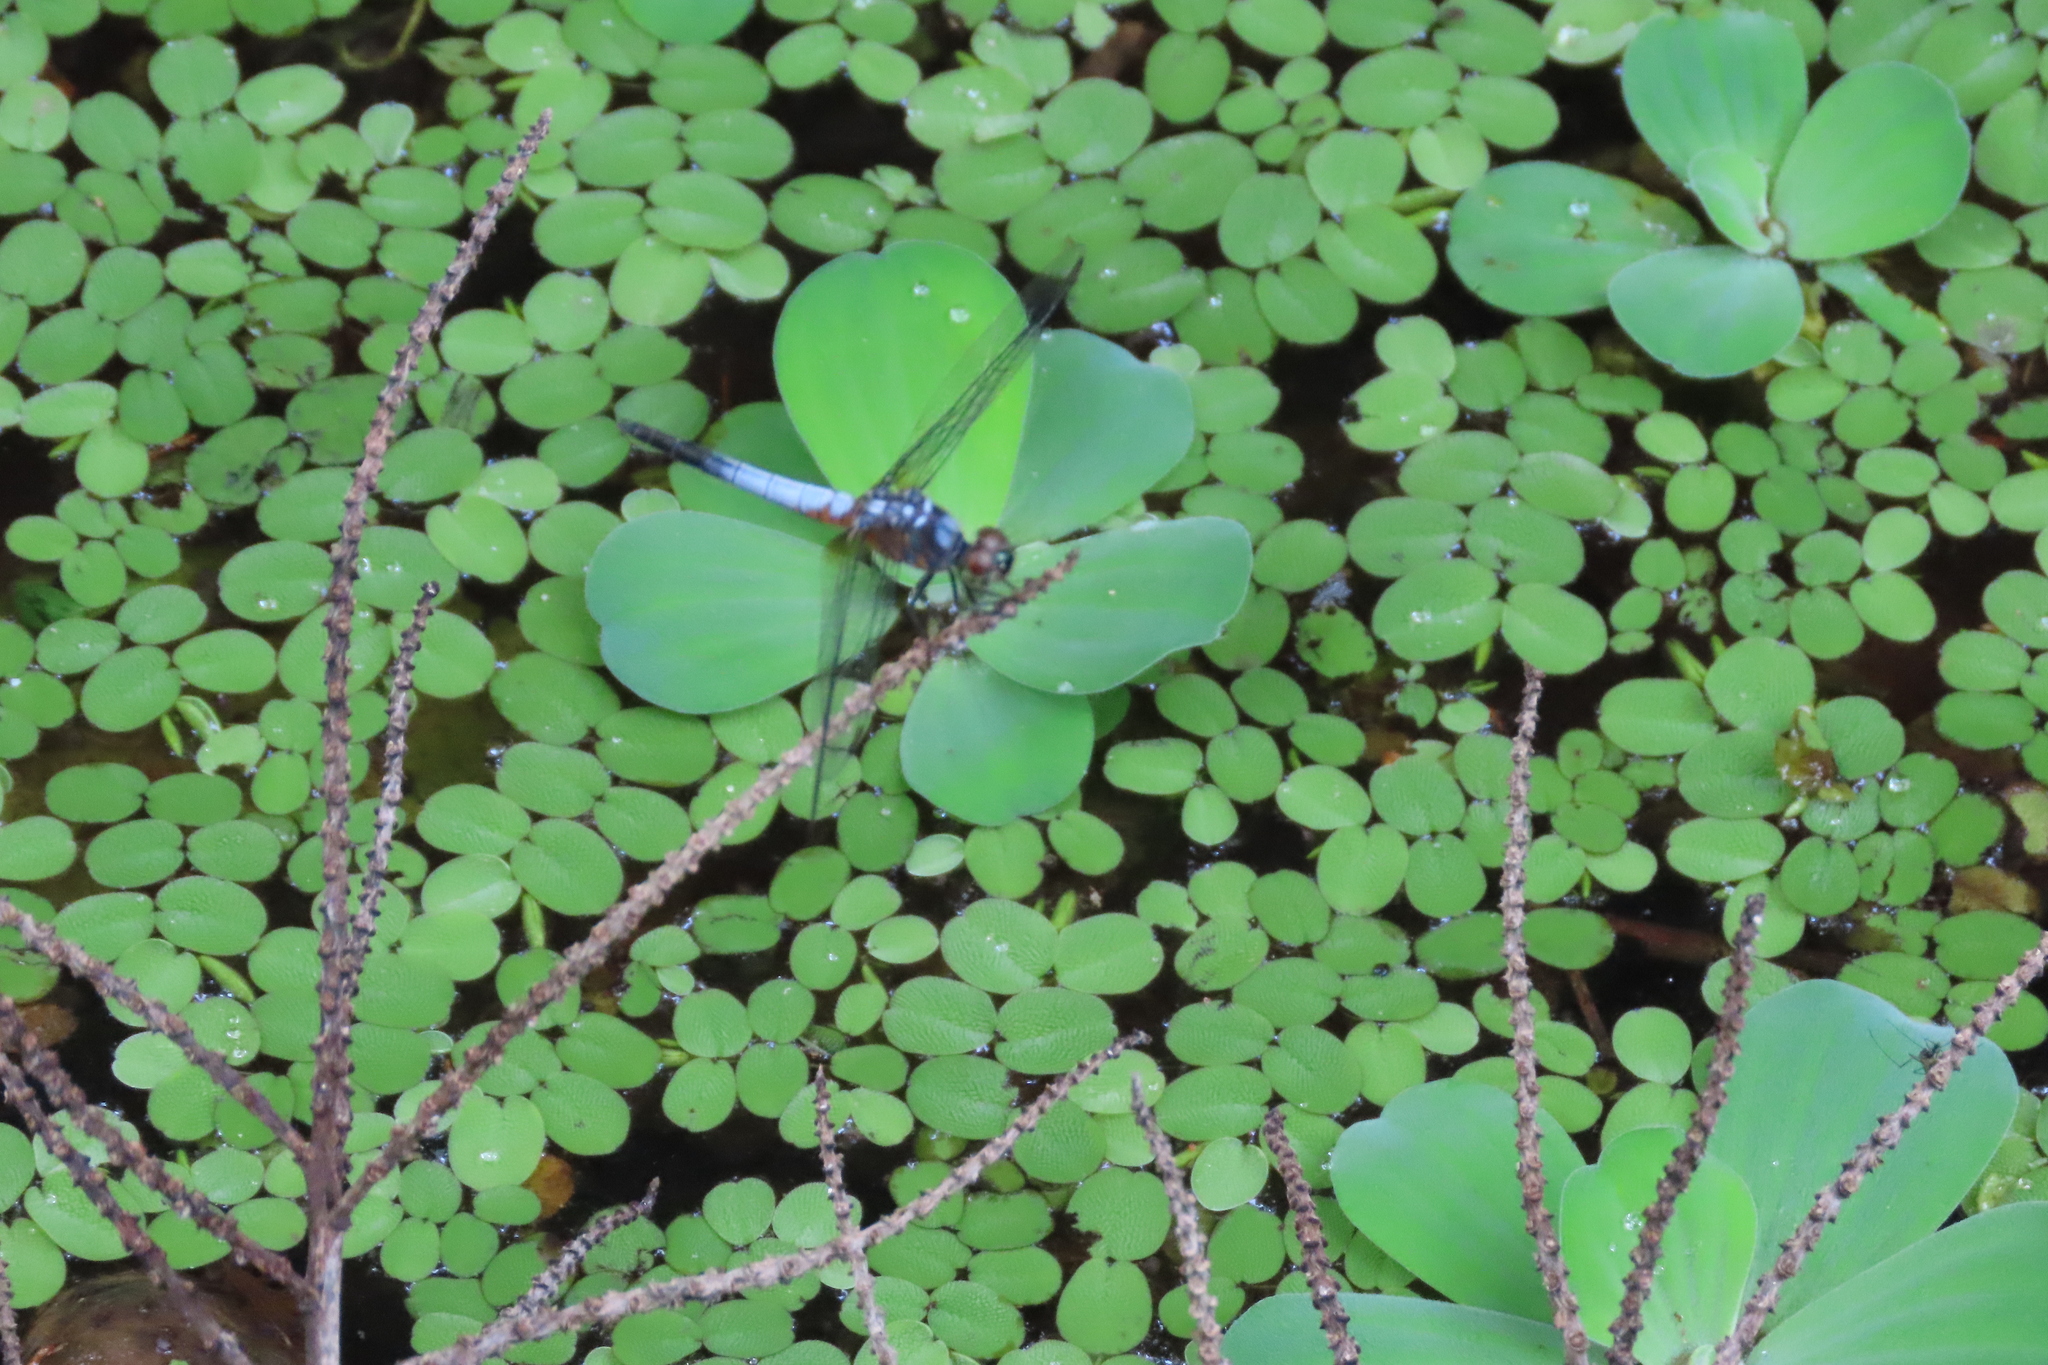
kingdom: Animalia
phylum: Arthropoda
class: Insecta
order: Odonata
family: Libellulidae
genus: Brachydiplax
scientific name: Brachydiplax chalybea
